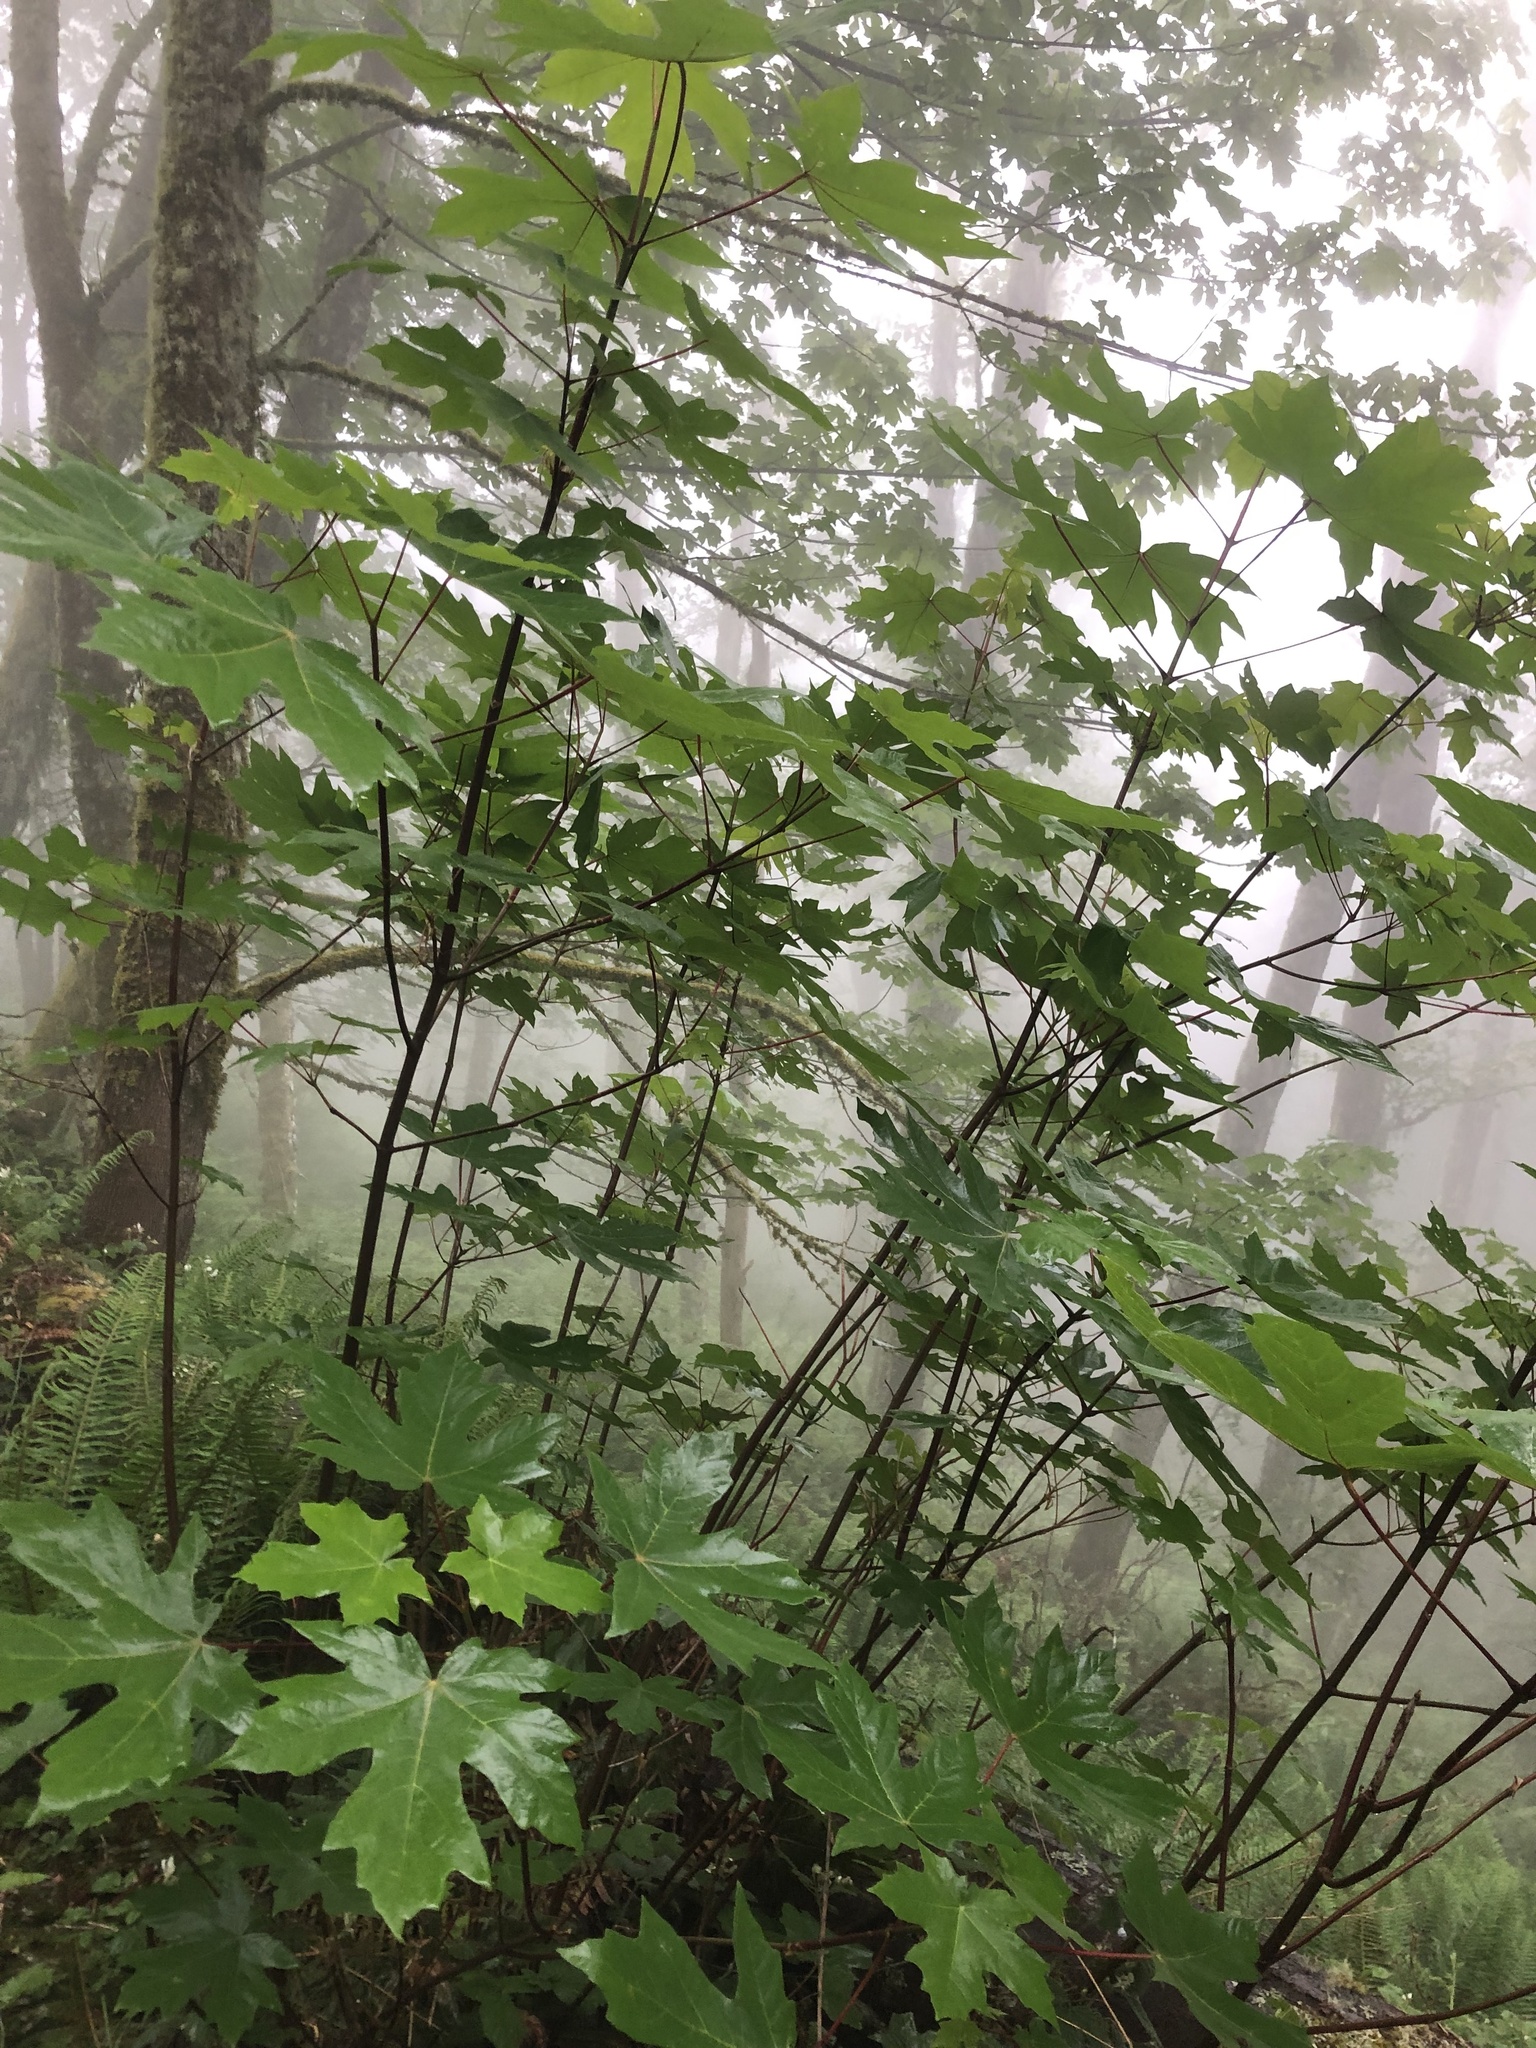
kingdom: Plantae
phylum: Tracheophyta
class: Magnoliopsida
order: Sapindales
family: Sapindaceae
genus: Acer
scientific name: Acer macrophyllum
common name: Oregon maple
